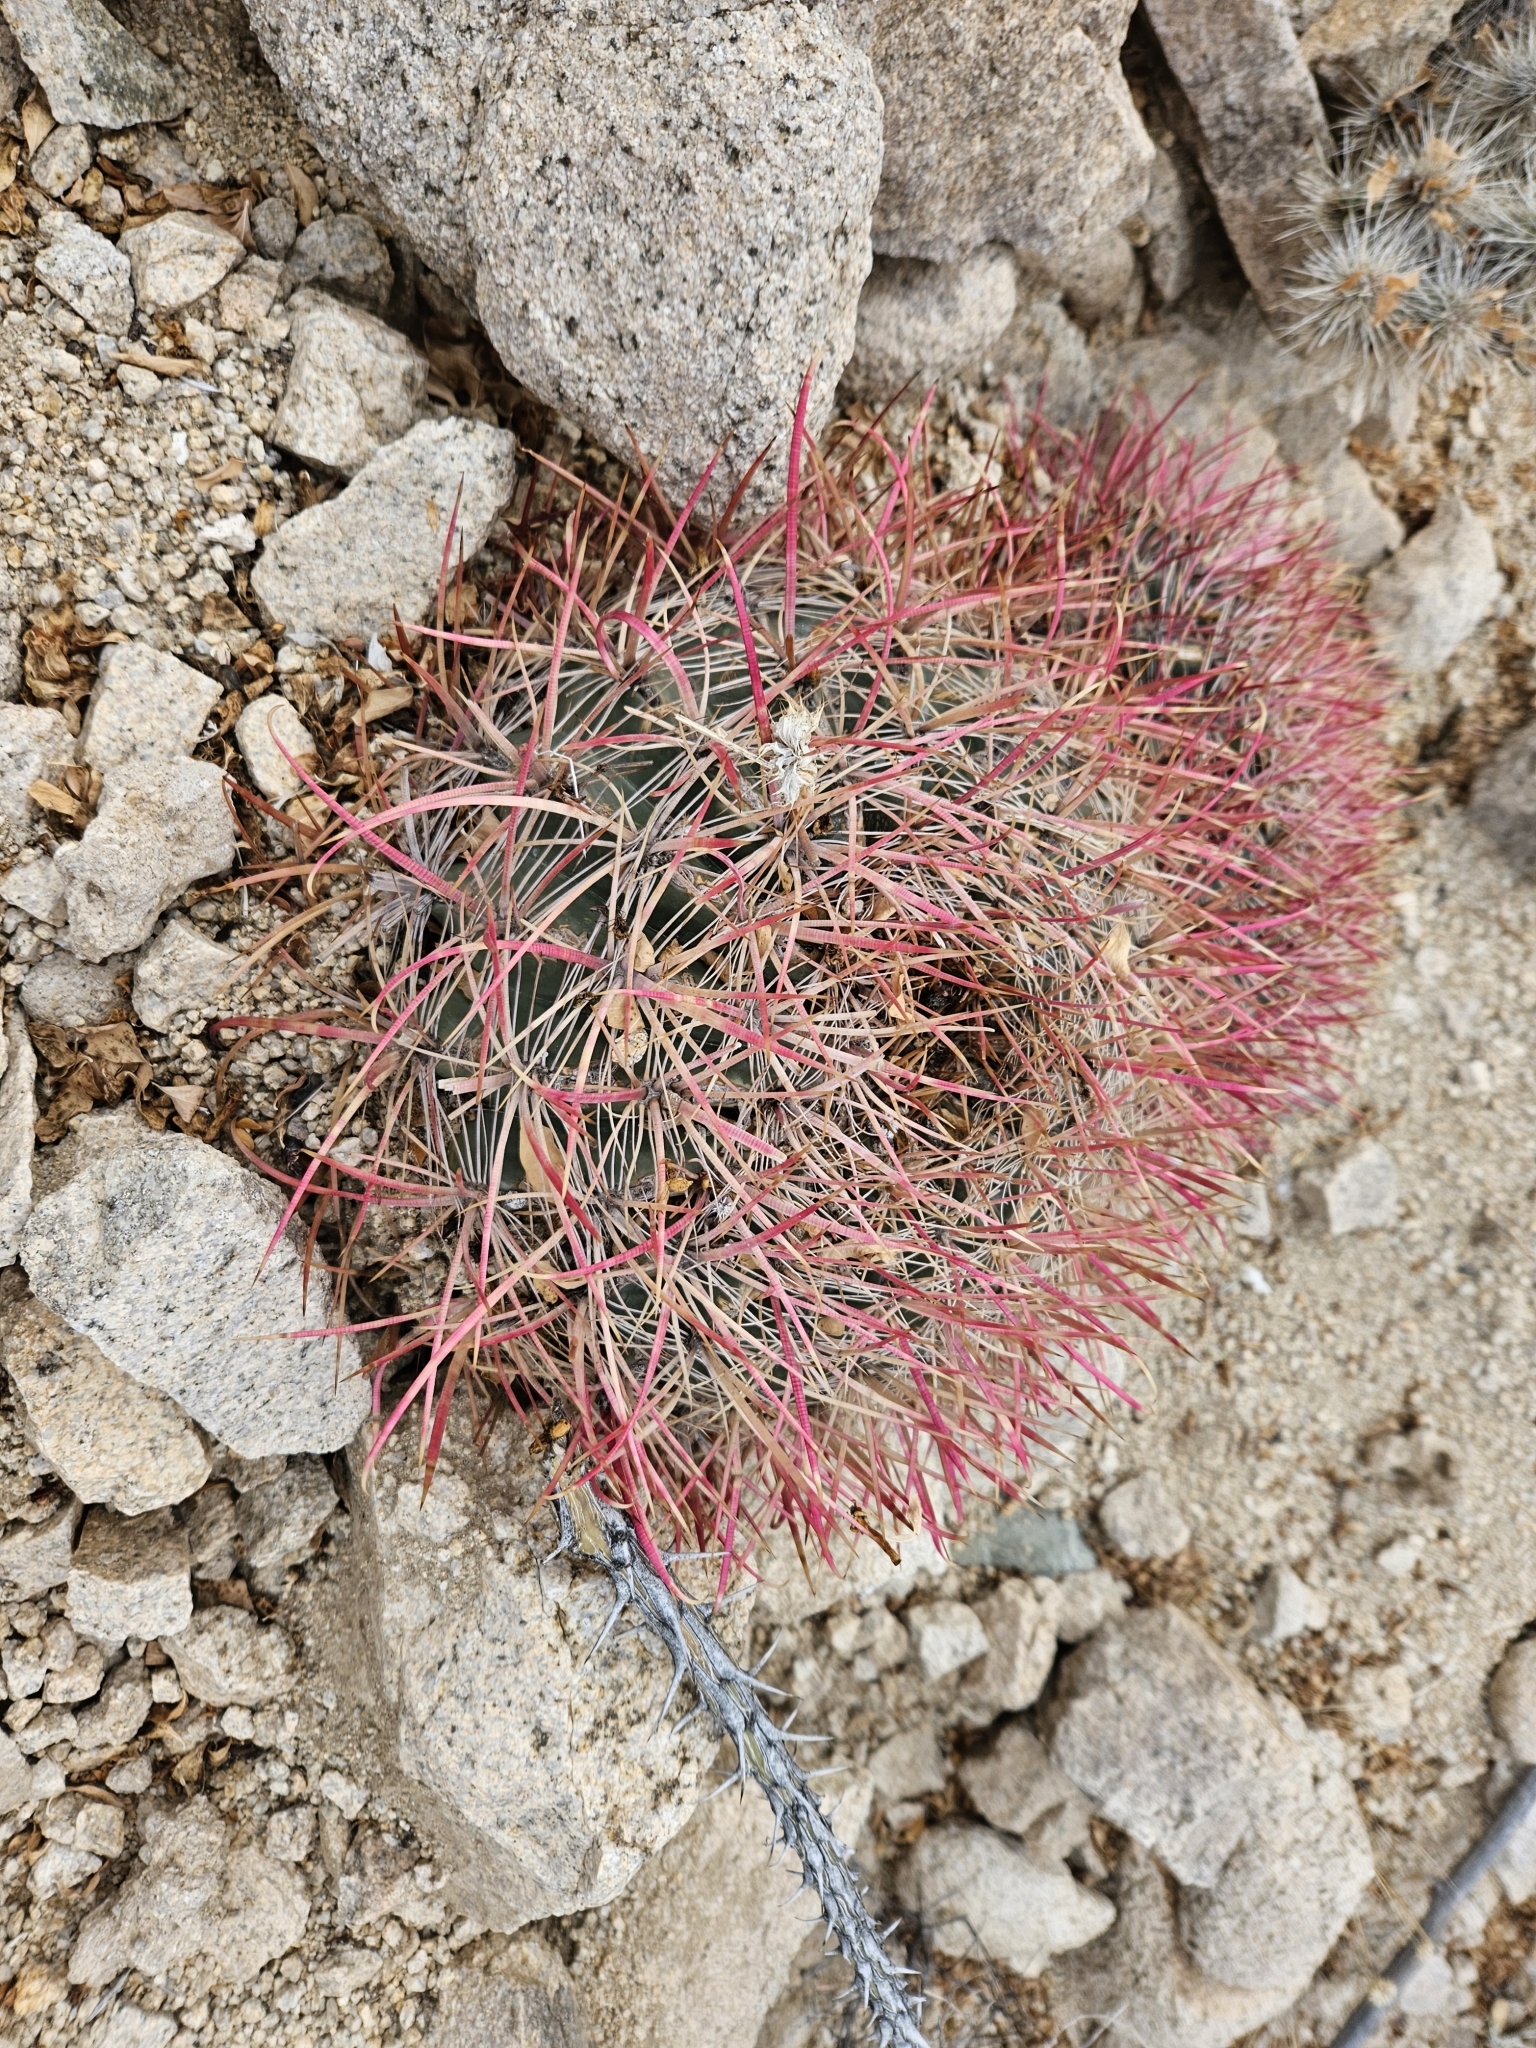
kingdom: Plantae
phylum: Tracheophyta
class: Magnoliopsida
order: Caryophyllales
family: Cactaceae
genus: Ferocactus
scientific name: Ferocactus cylindraceus
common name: California barrel cactus
